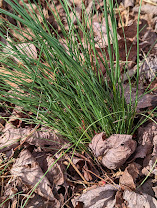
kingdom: Plantae
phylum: Tracheophyta
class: Liliopsida
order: Asparagales
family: Amaryllidaceae
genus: Allium
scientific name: Allium vineale
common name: Crow garlic
